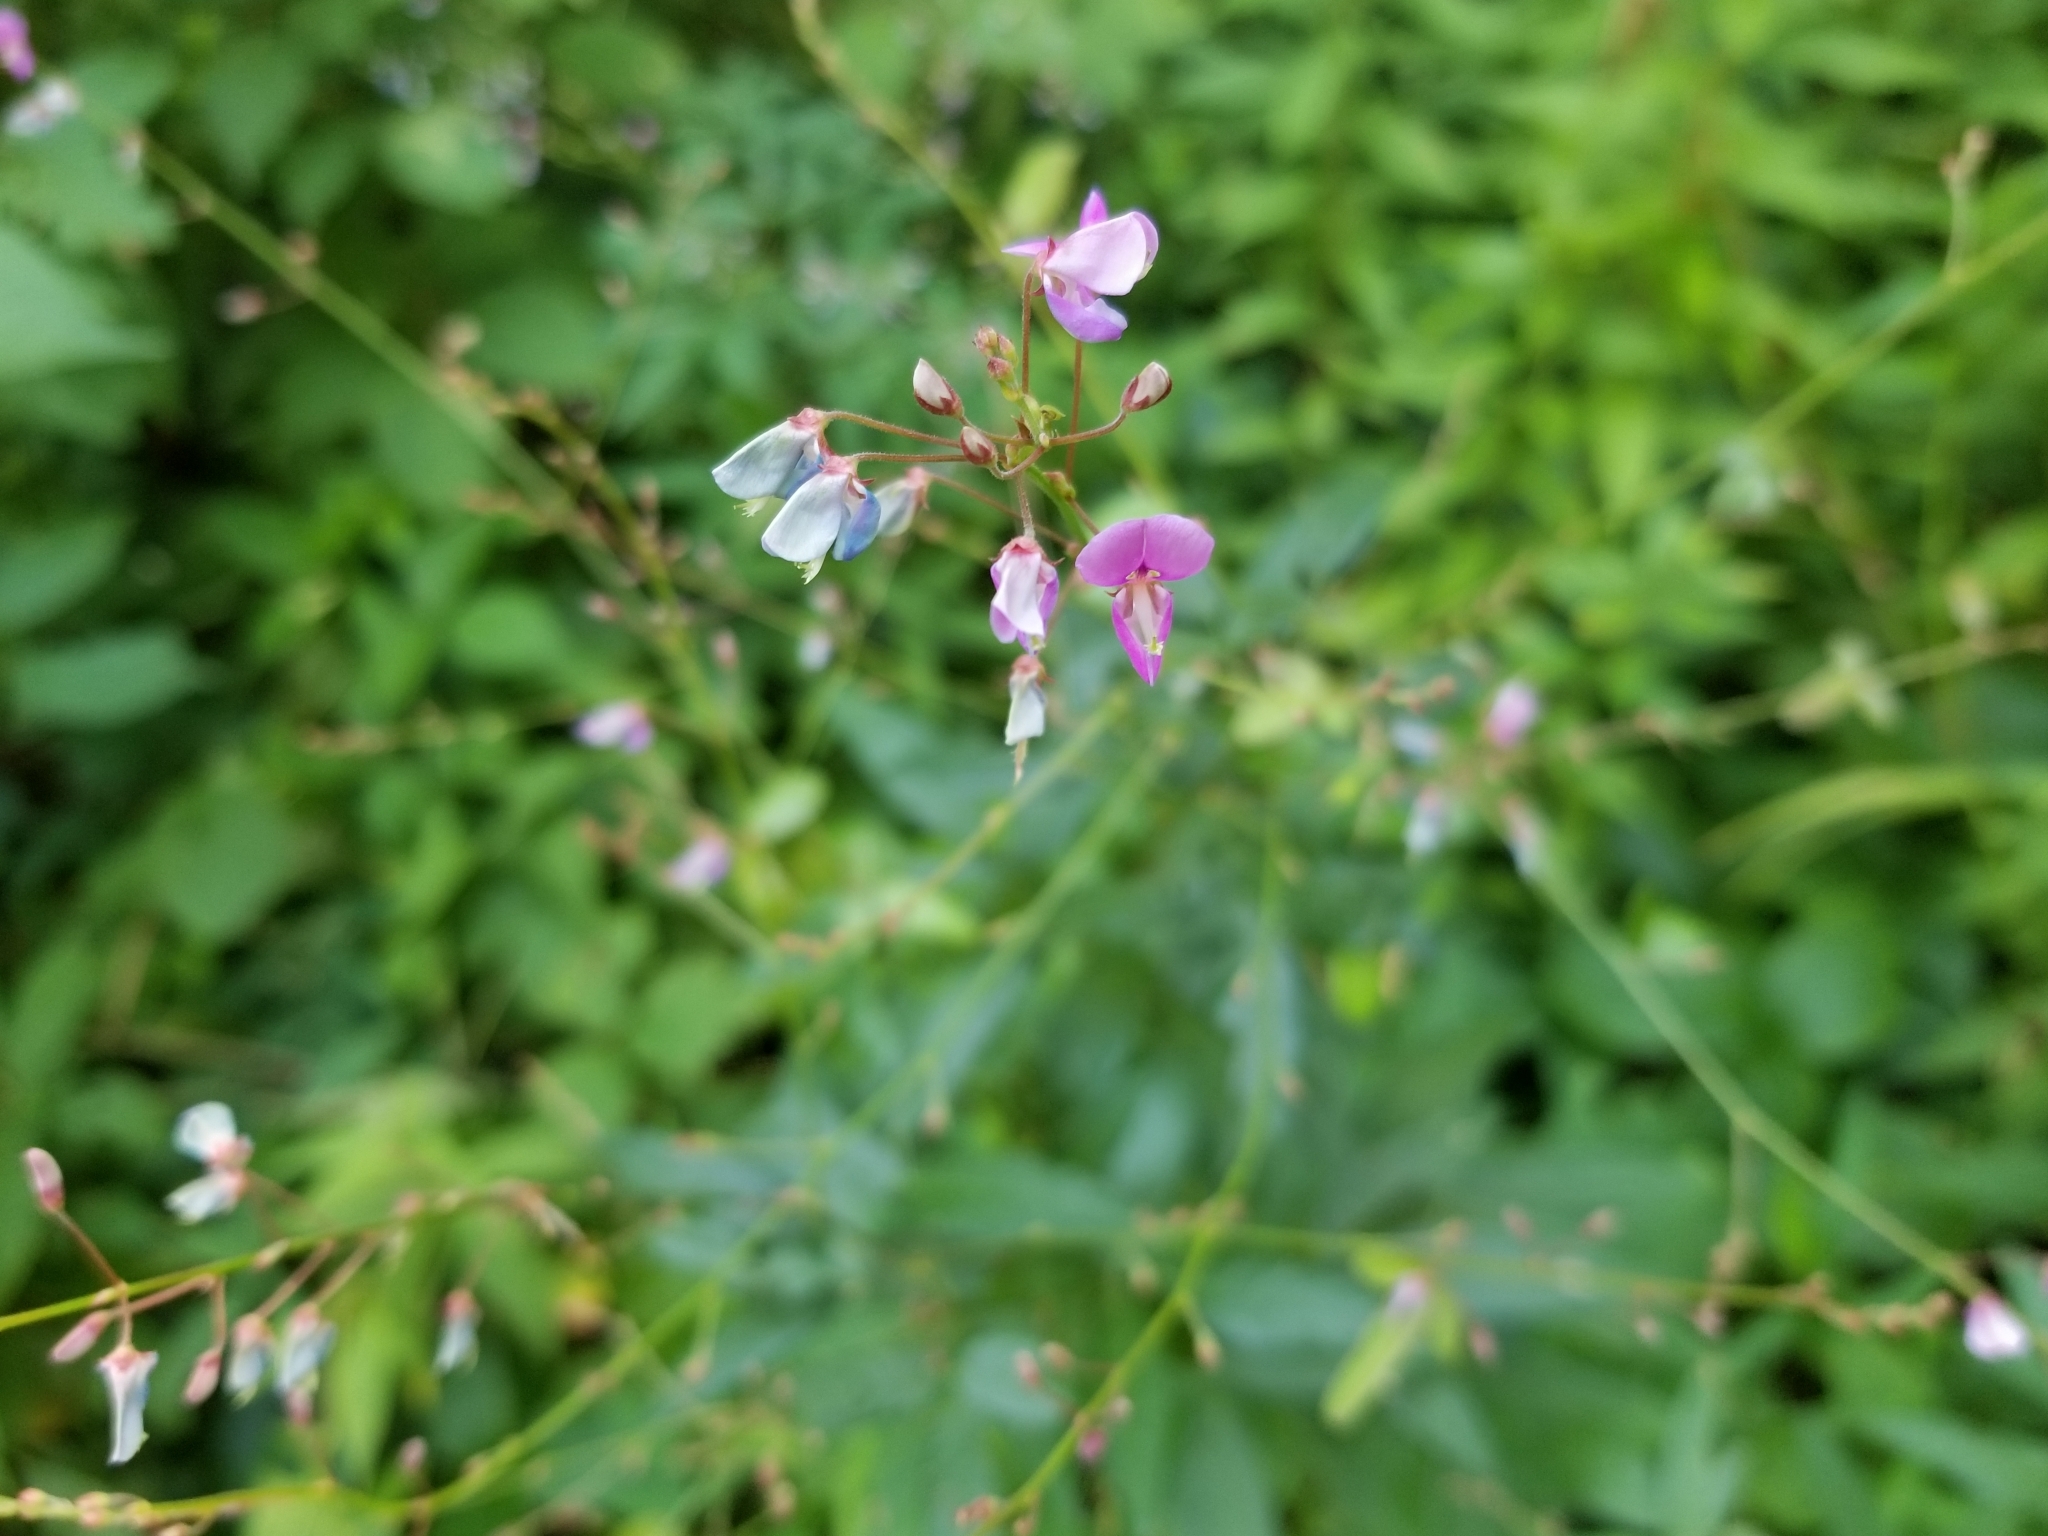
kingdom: Plantae
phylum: Tracheophyta
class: Magnoliopsida
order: Fabales
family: Fabaceae
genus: Desmodium
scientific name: Desmodium paniculatum
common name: Panicled tick-clover
